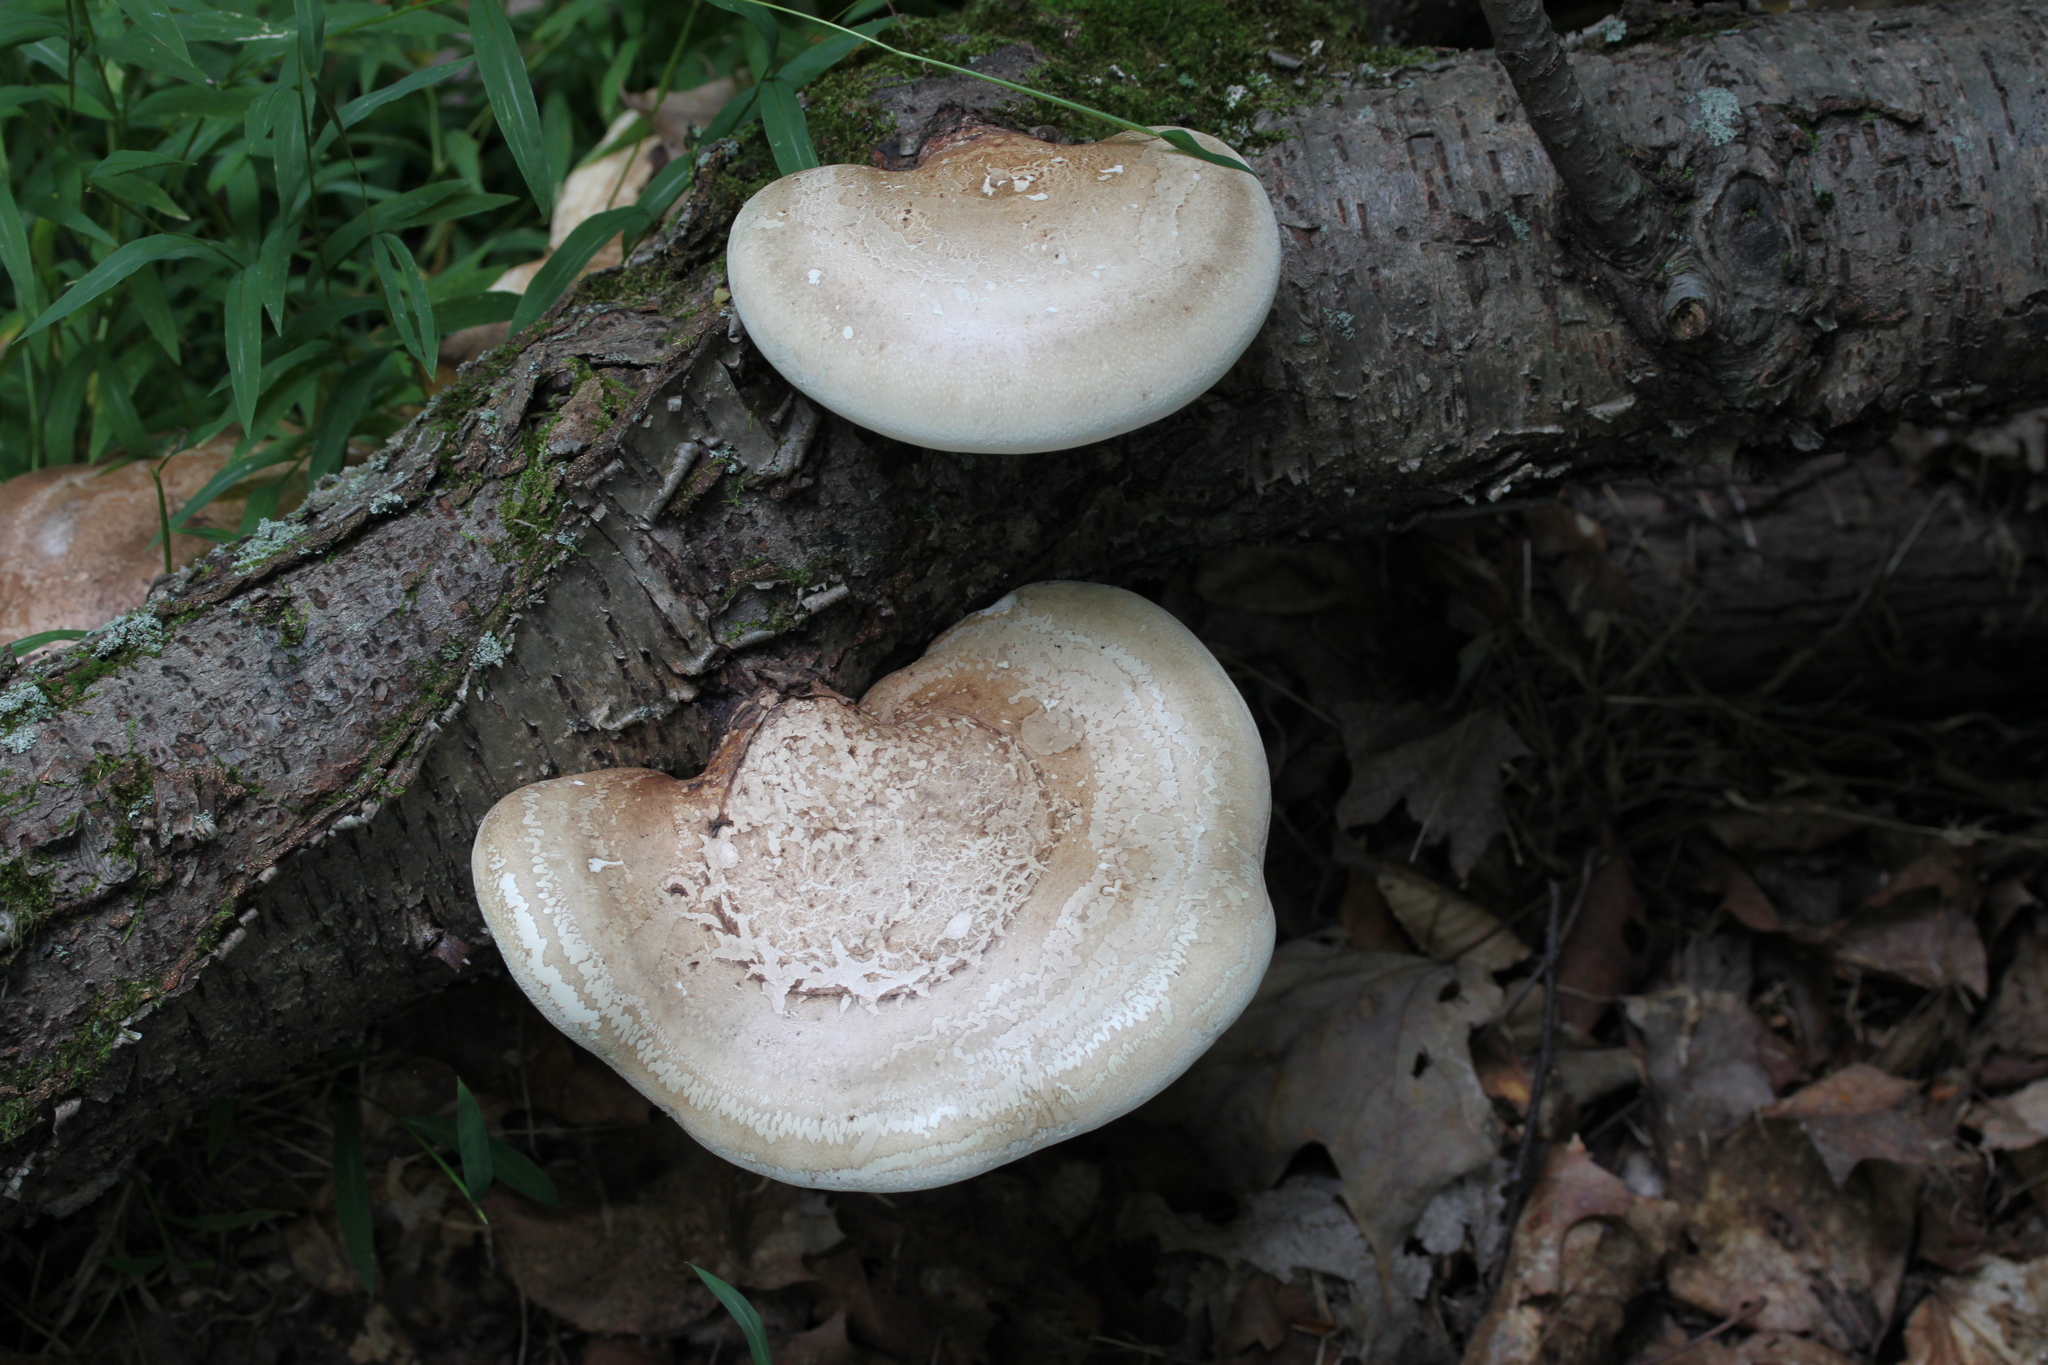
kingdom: Fungi
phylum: Basidiomycota
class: Agaricomycetes
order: Polyporales
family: Fomitopsidaceae
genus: Fomitopsis
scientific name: Fomitopsis betulina
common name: Birch polypore
